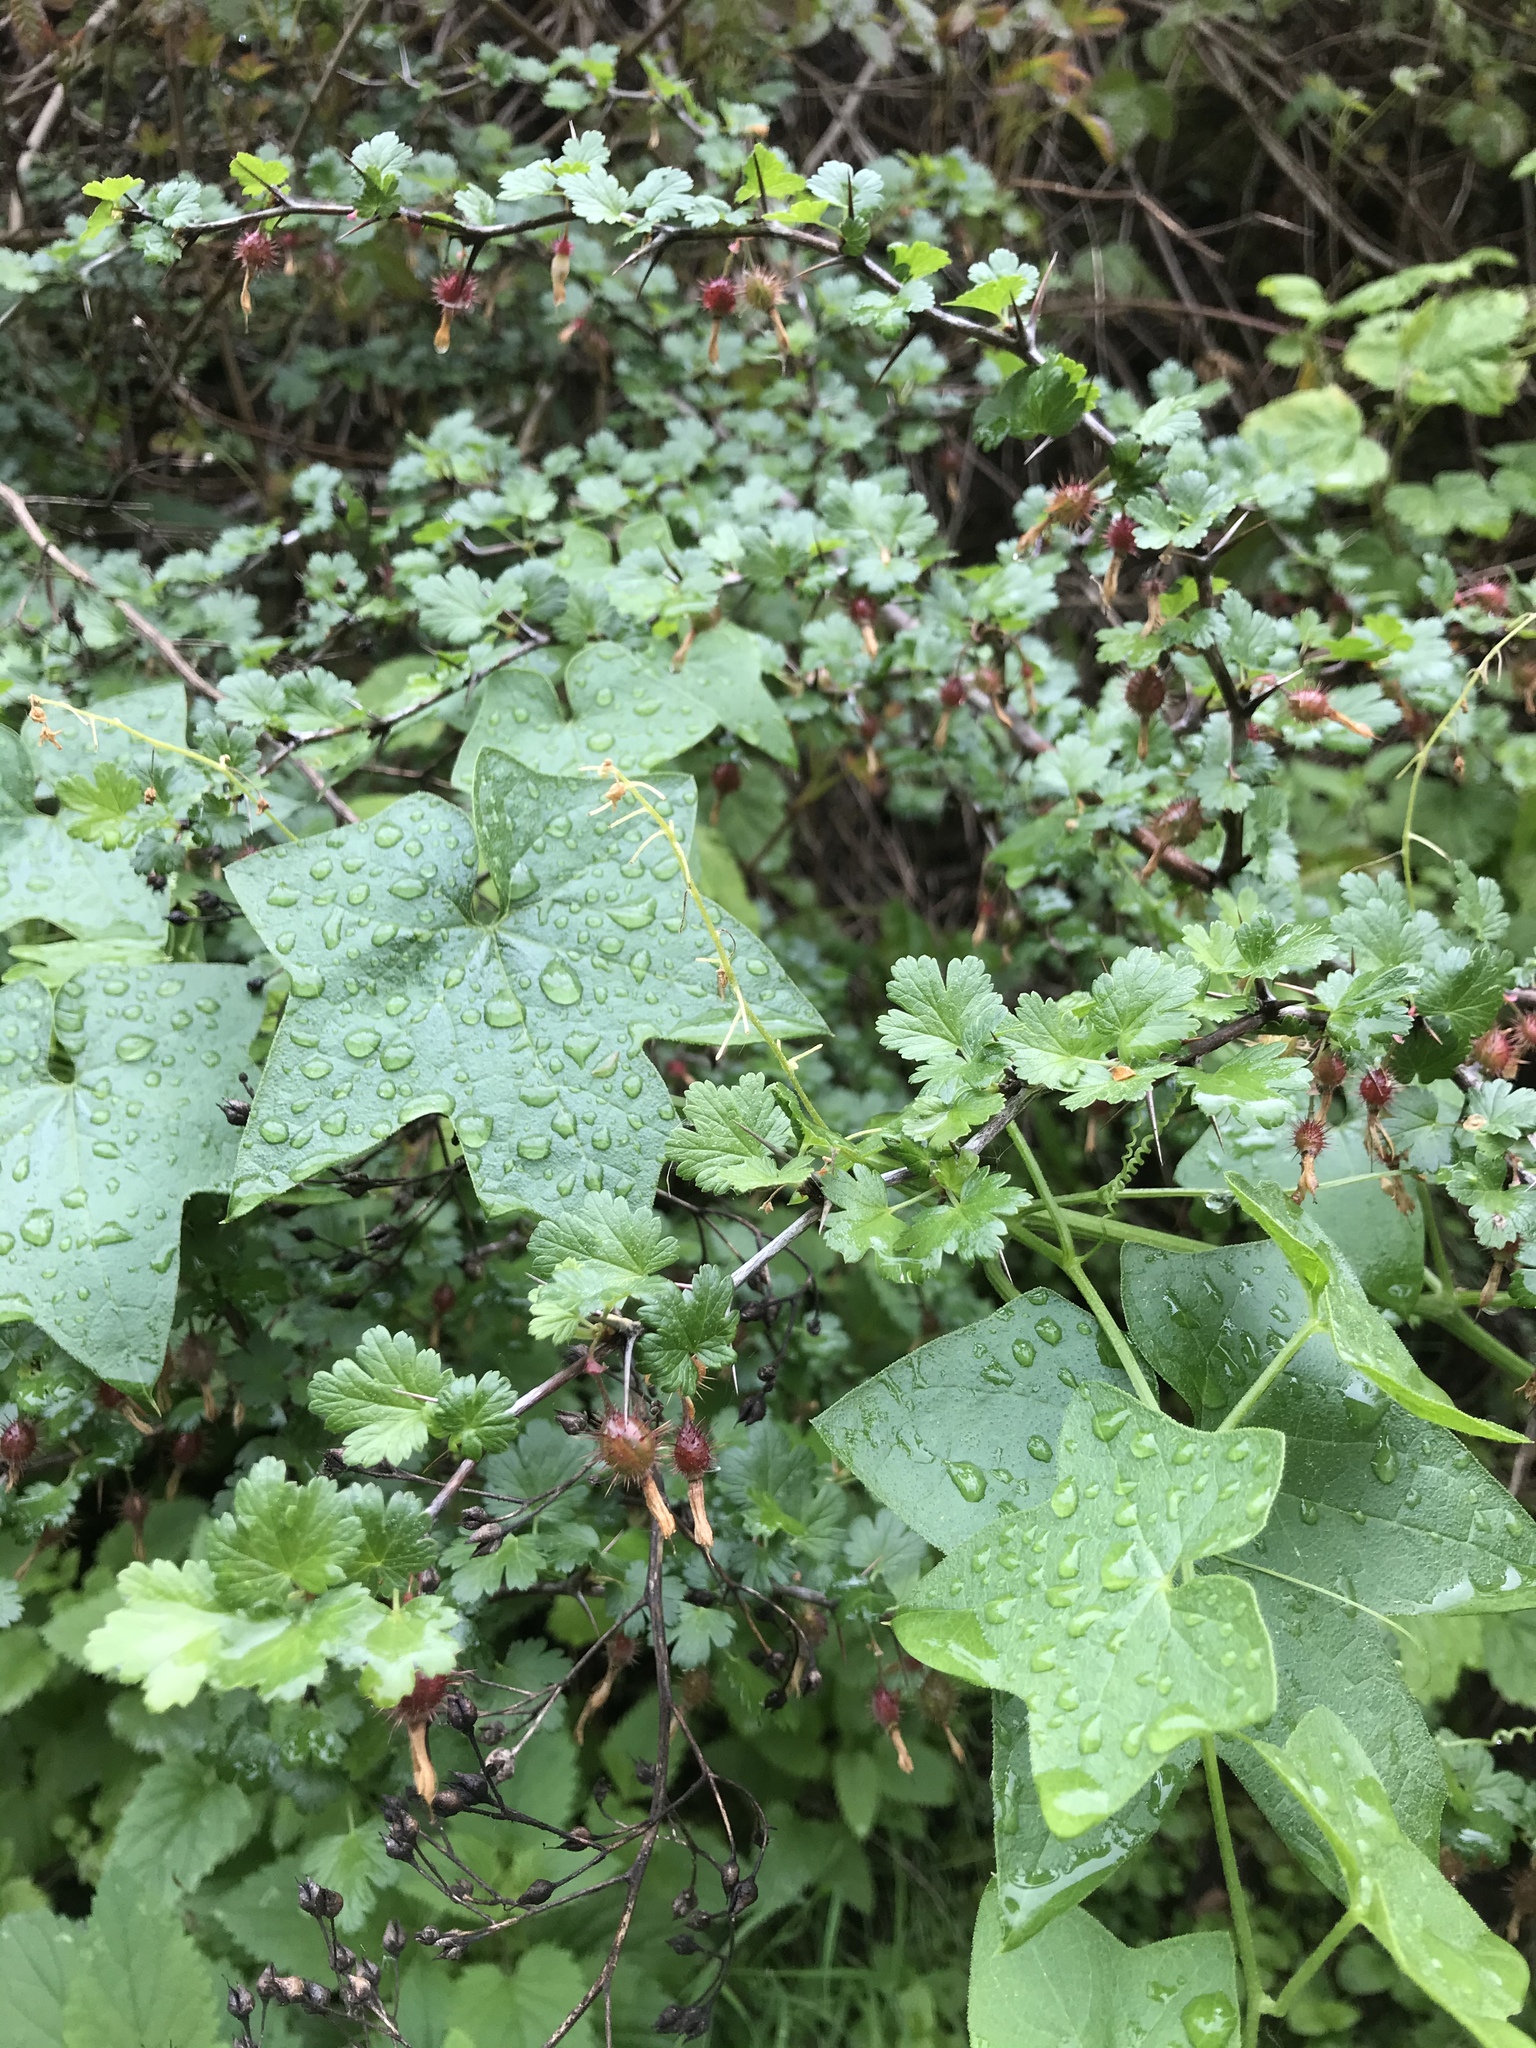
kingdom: Plantae
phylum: Tracheophyta
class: Magnoliopsida
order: Saxifragales
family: Grossulariaceae
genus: Ribes
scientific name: Ribes californicum
